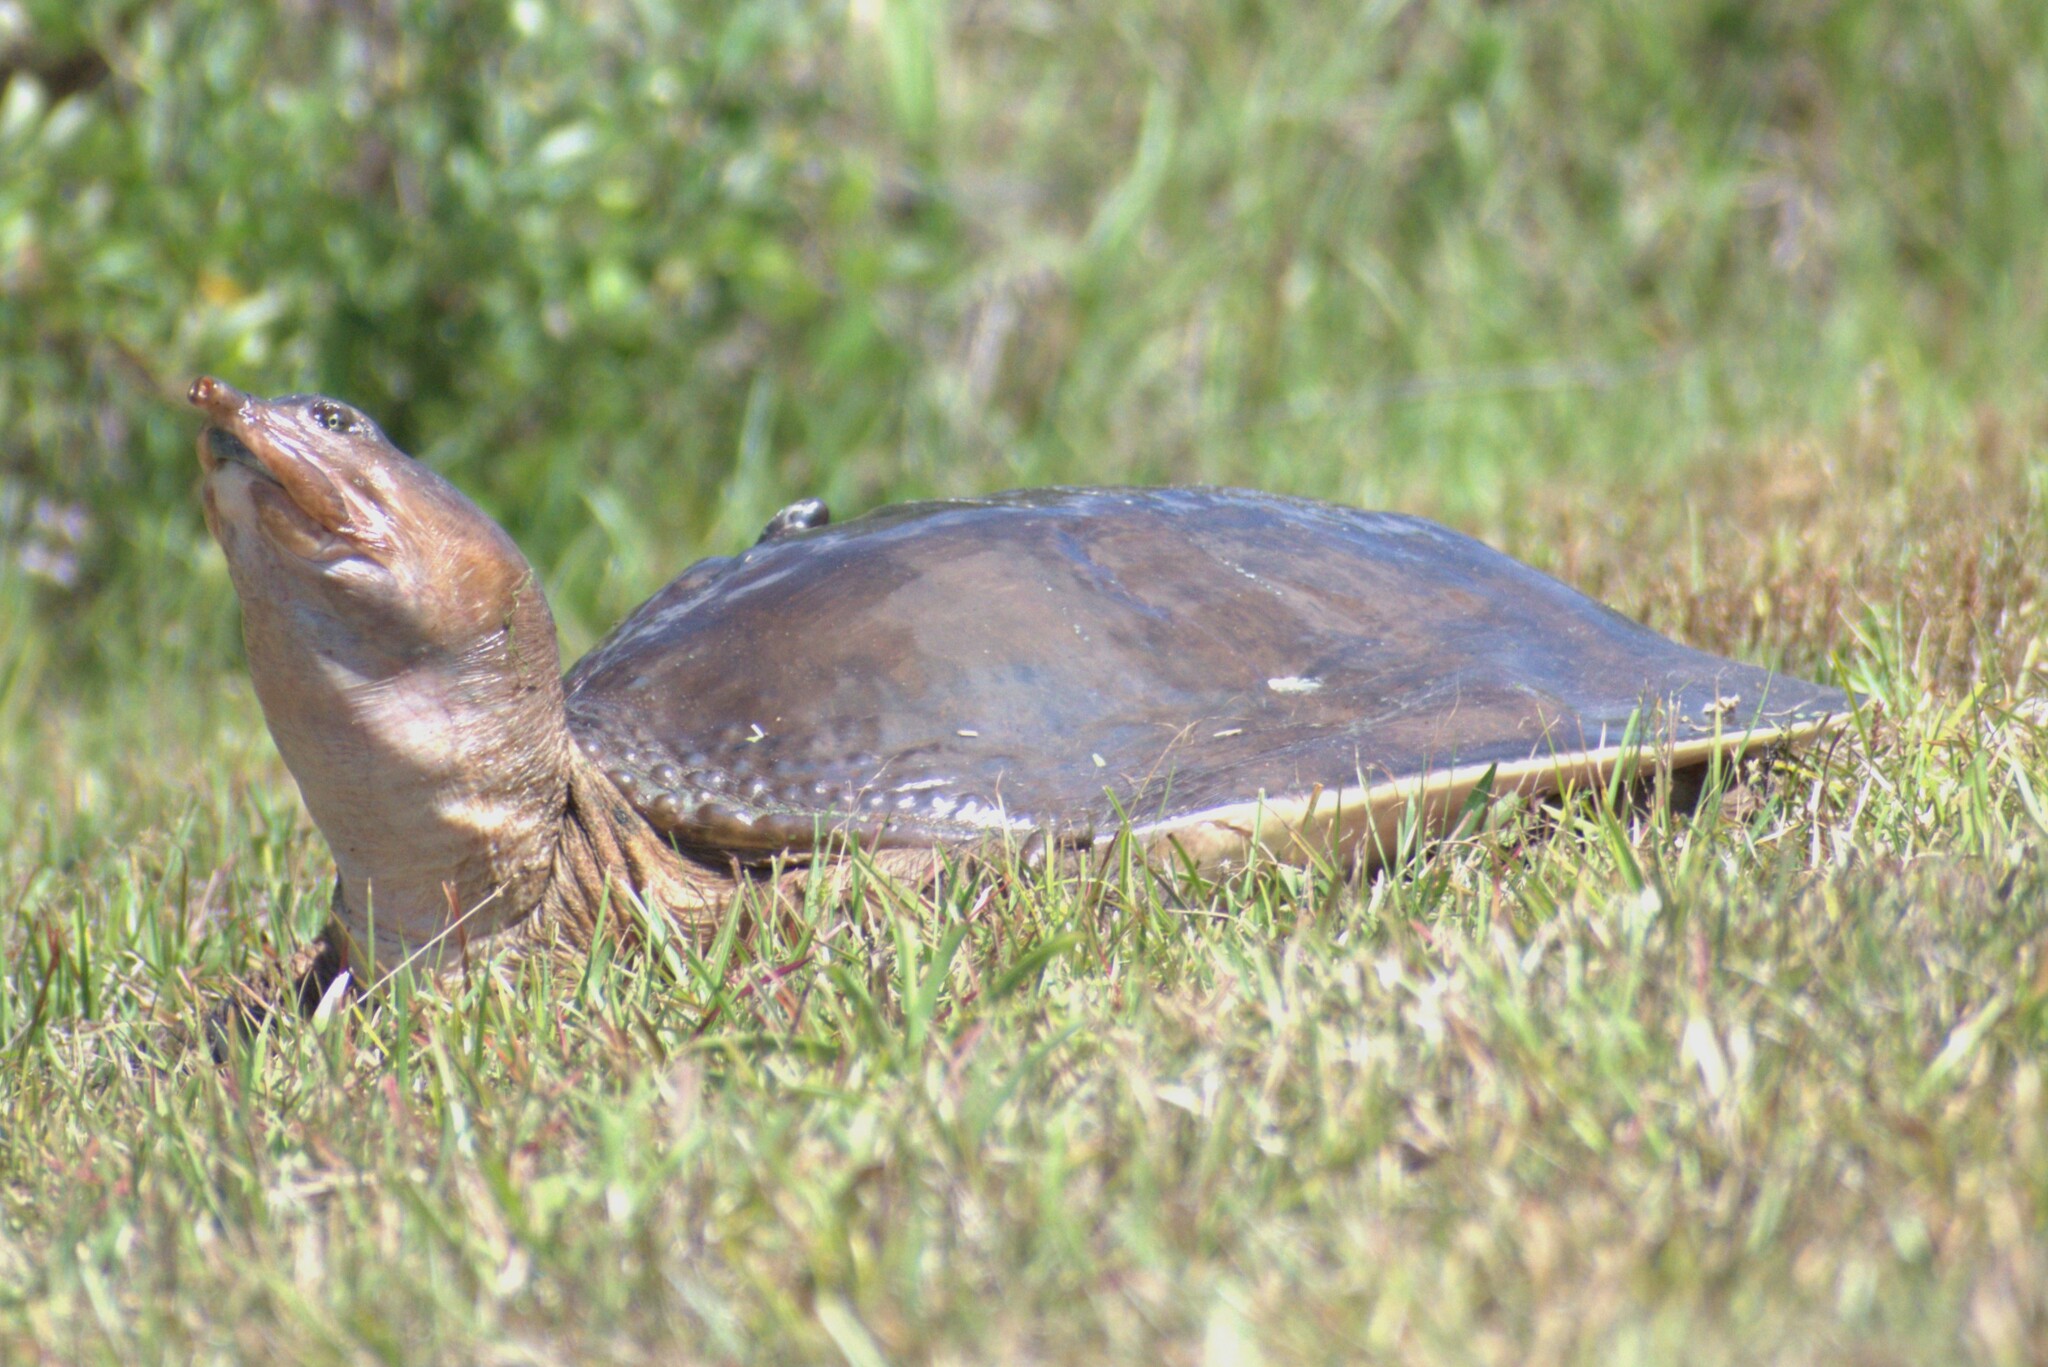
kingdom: Animalia
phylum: Chordata
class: Testudines
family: Trionychidae
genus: Apalone
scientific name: Apalone ferox
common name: Florida softshell turtle
